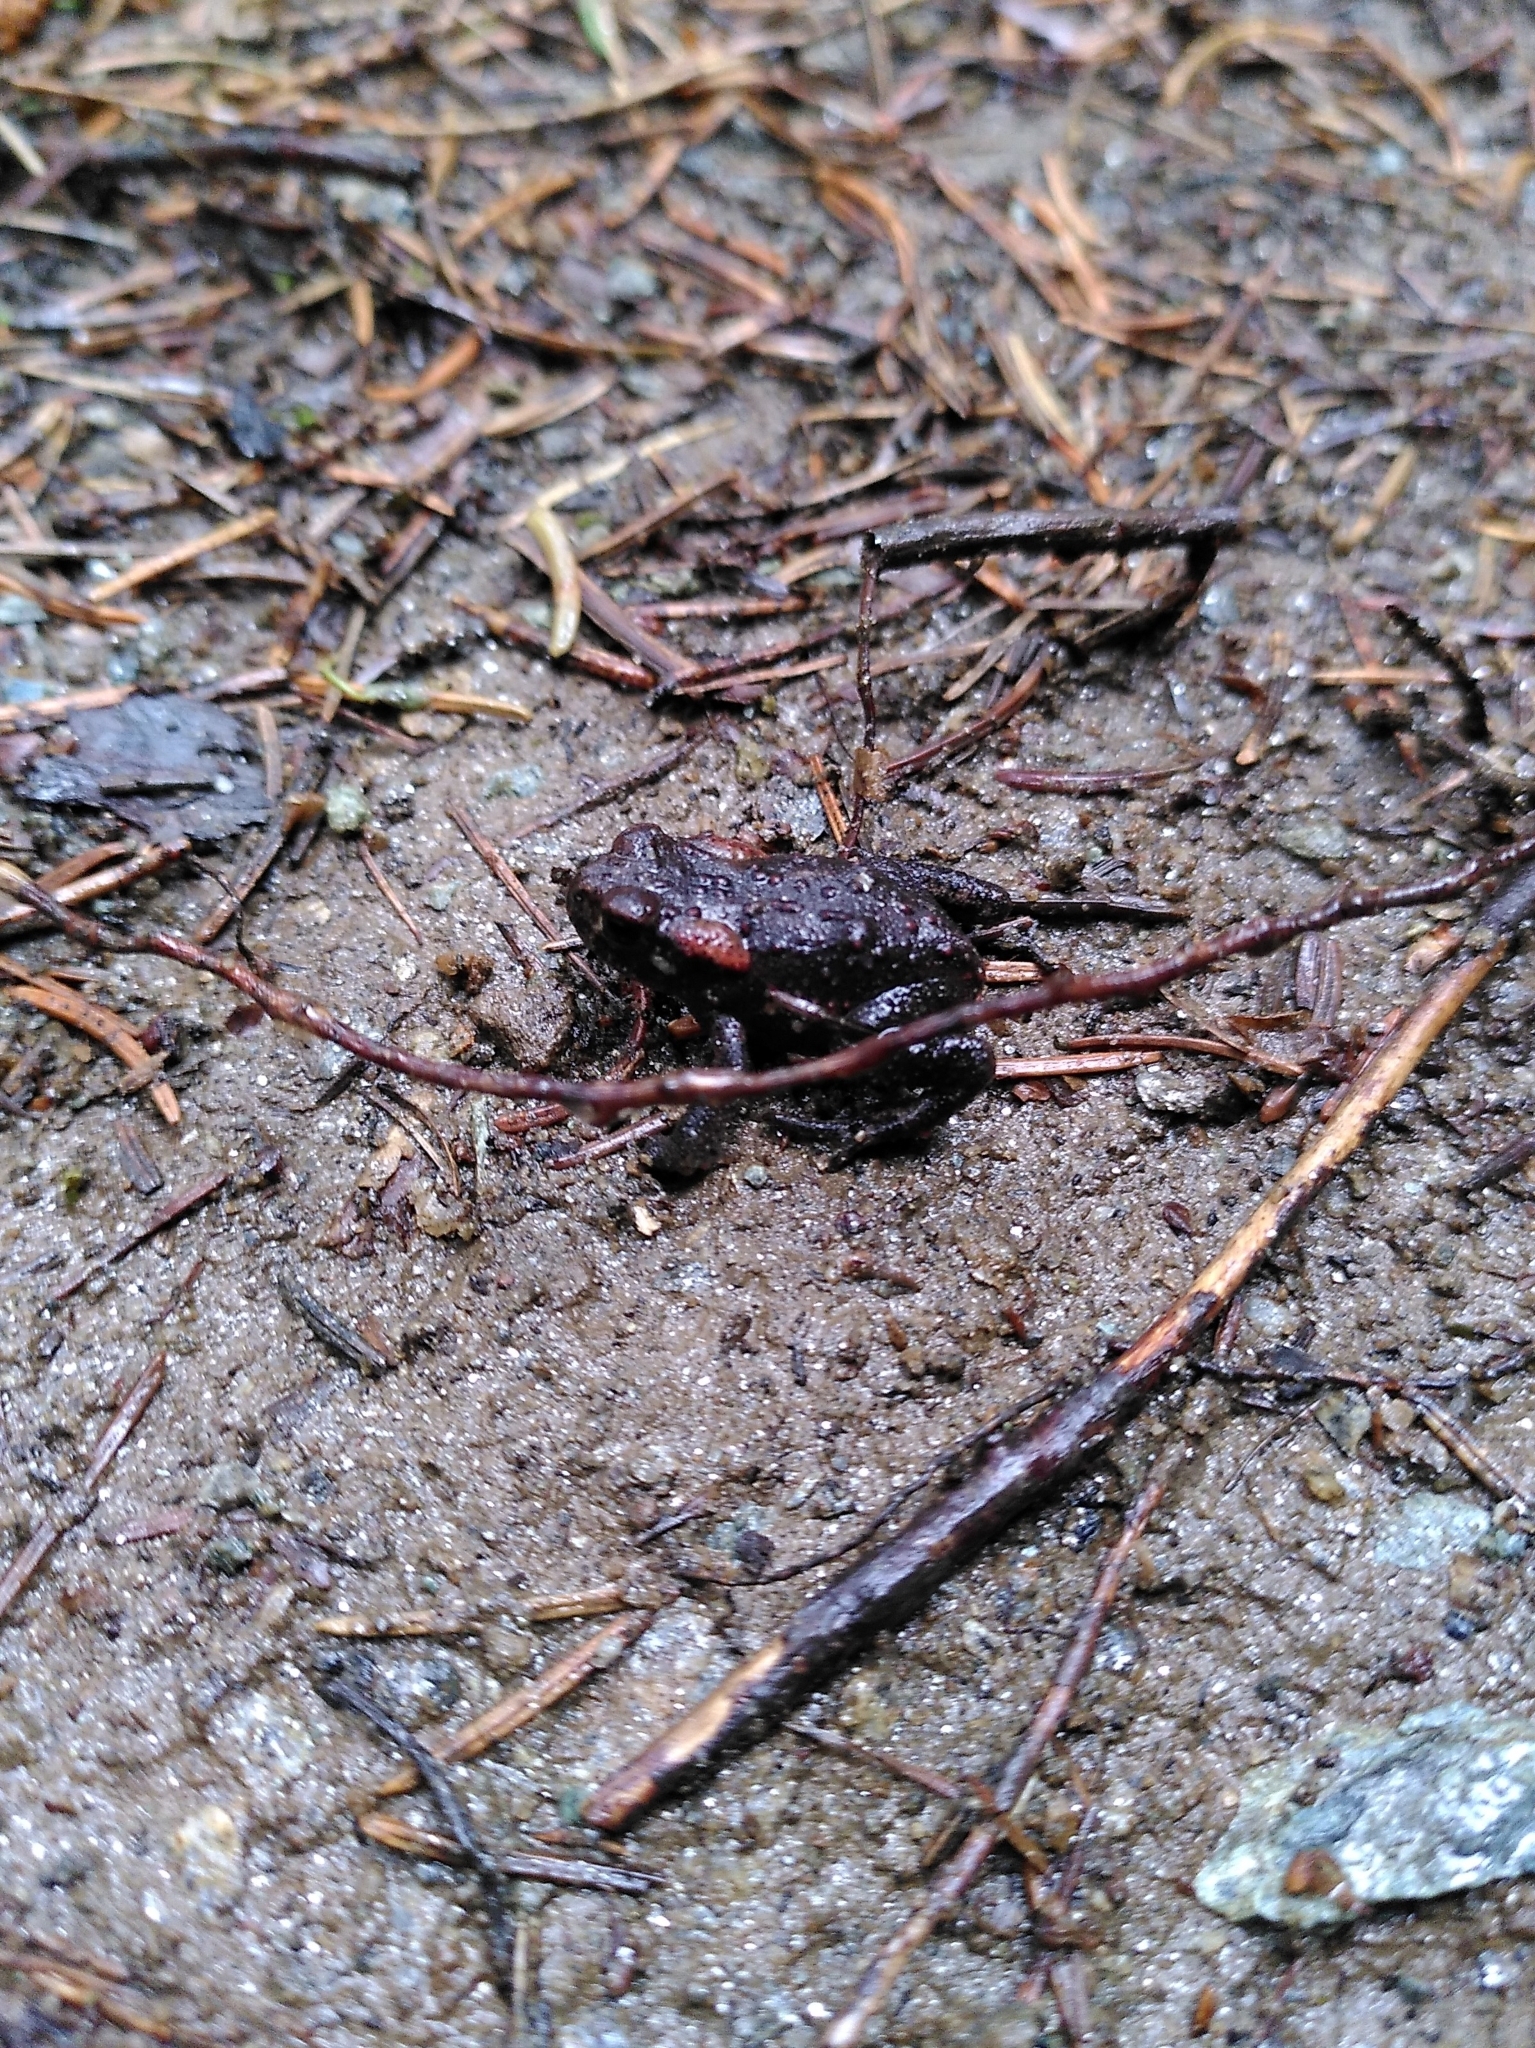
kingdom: Animalia
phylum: Chordata
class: Amphibia
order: Anura
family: Bufonidae
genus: Bufo
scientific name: Bufo bufo
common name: Common toad
